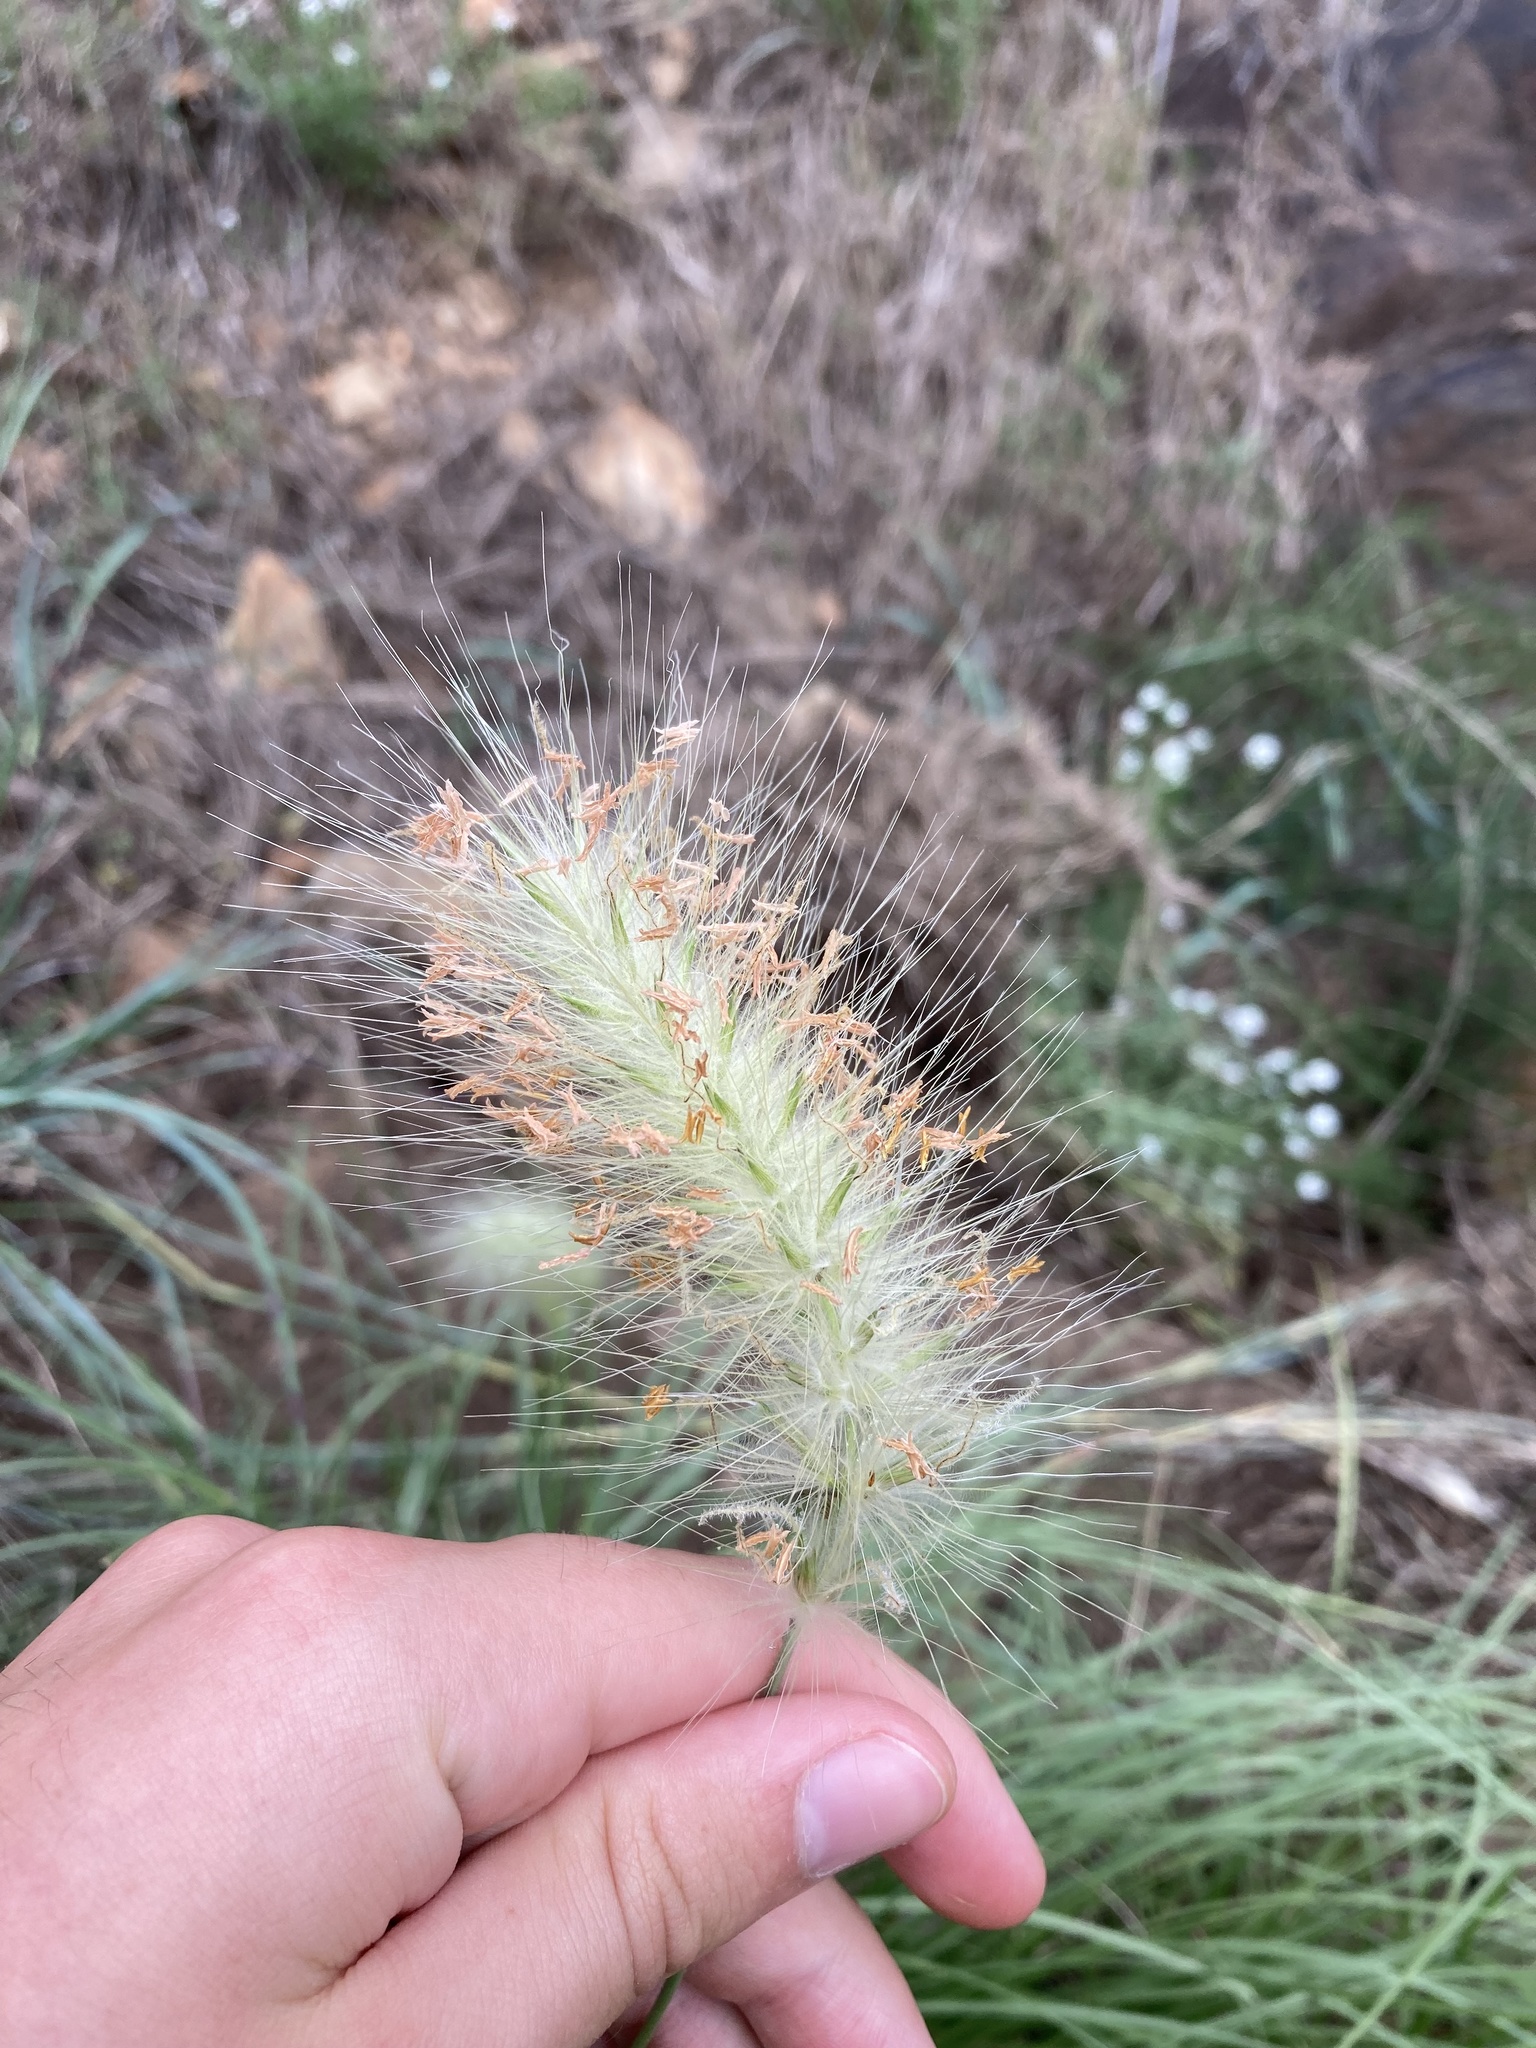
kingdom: Plantae
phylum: Tracheophyta
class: Liliopsida
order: Poales
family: Poaceae
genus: Cenchrus
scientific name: Cenchrus longisetus
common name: Feathertop
